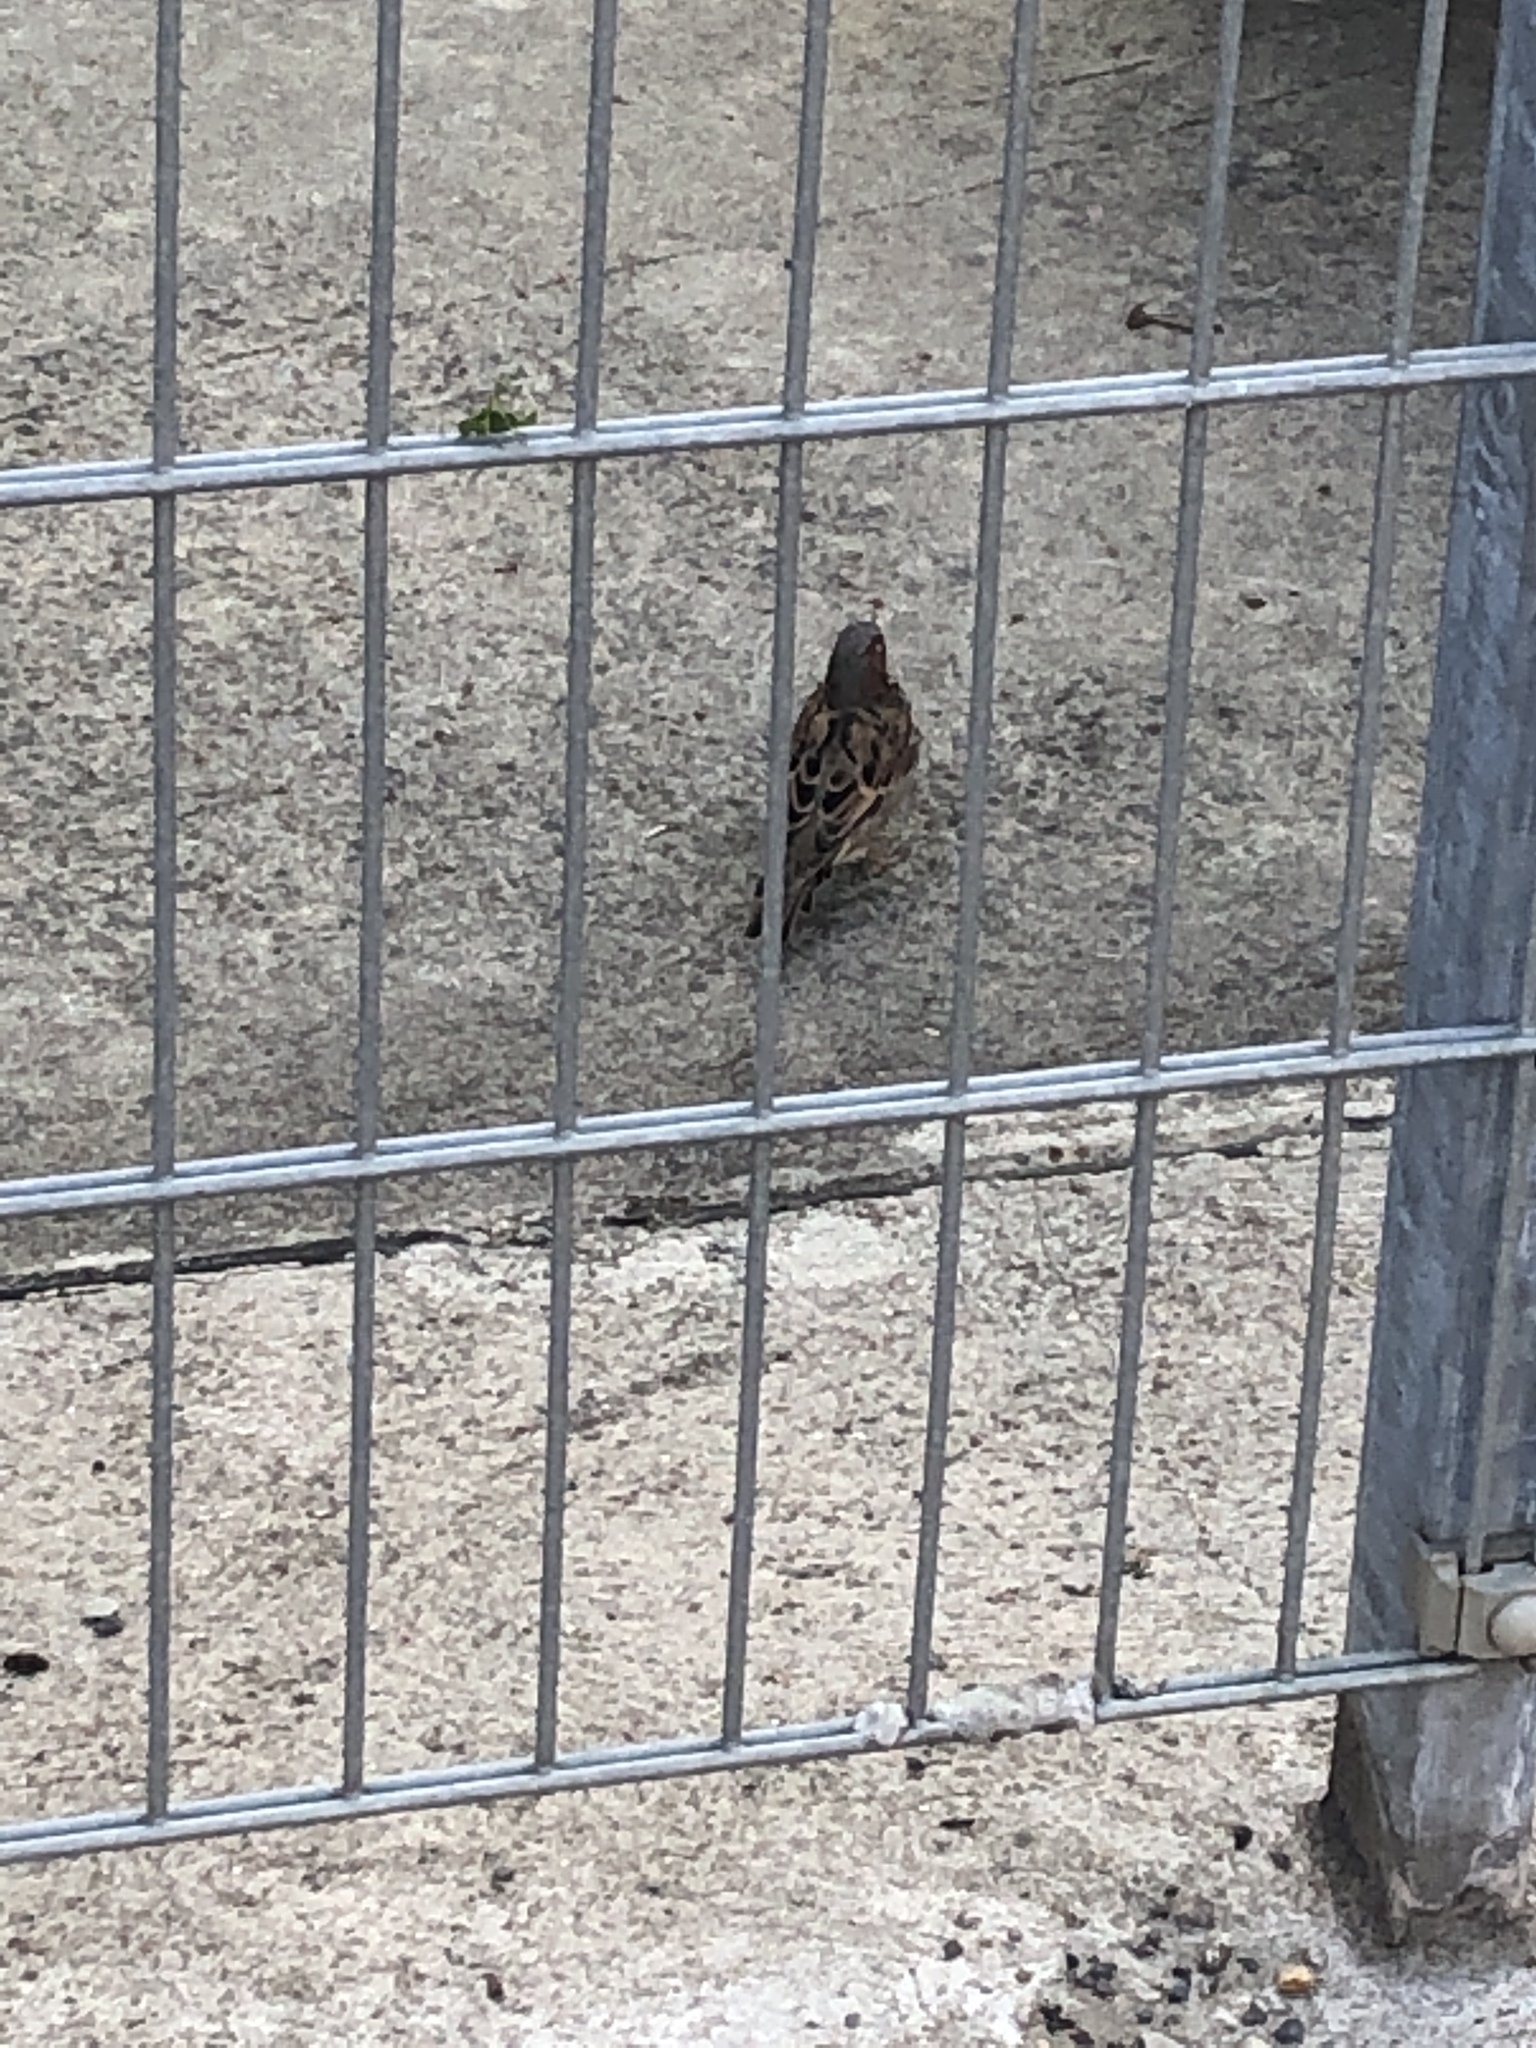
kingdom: Animalia
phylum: Chordata
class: Aves
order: Passeriformes
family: Passeridae
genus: Passer
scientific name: Passer domesticus
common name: House sparrow
